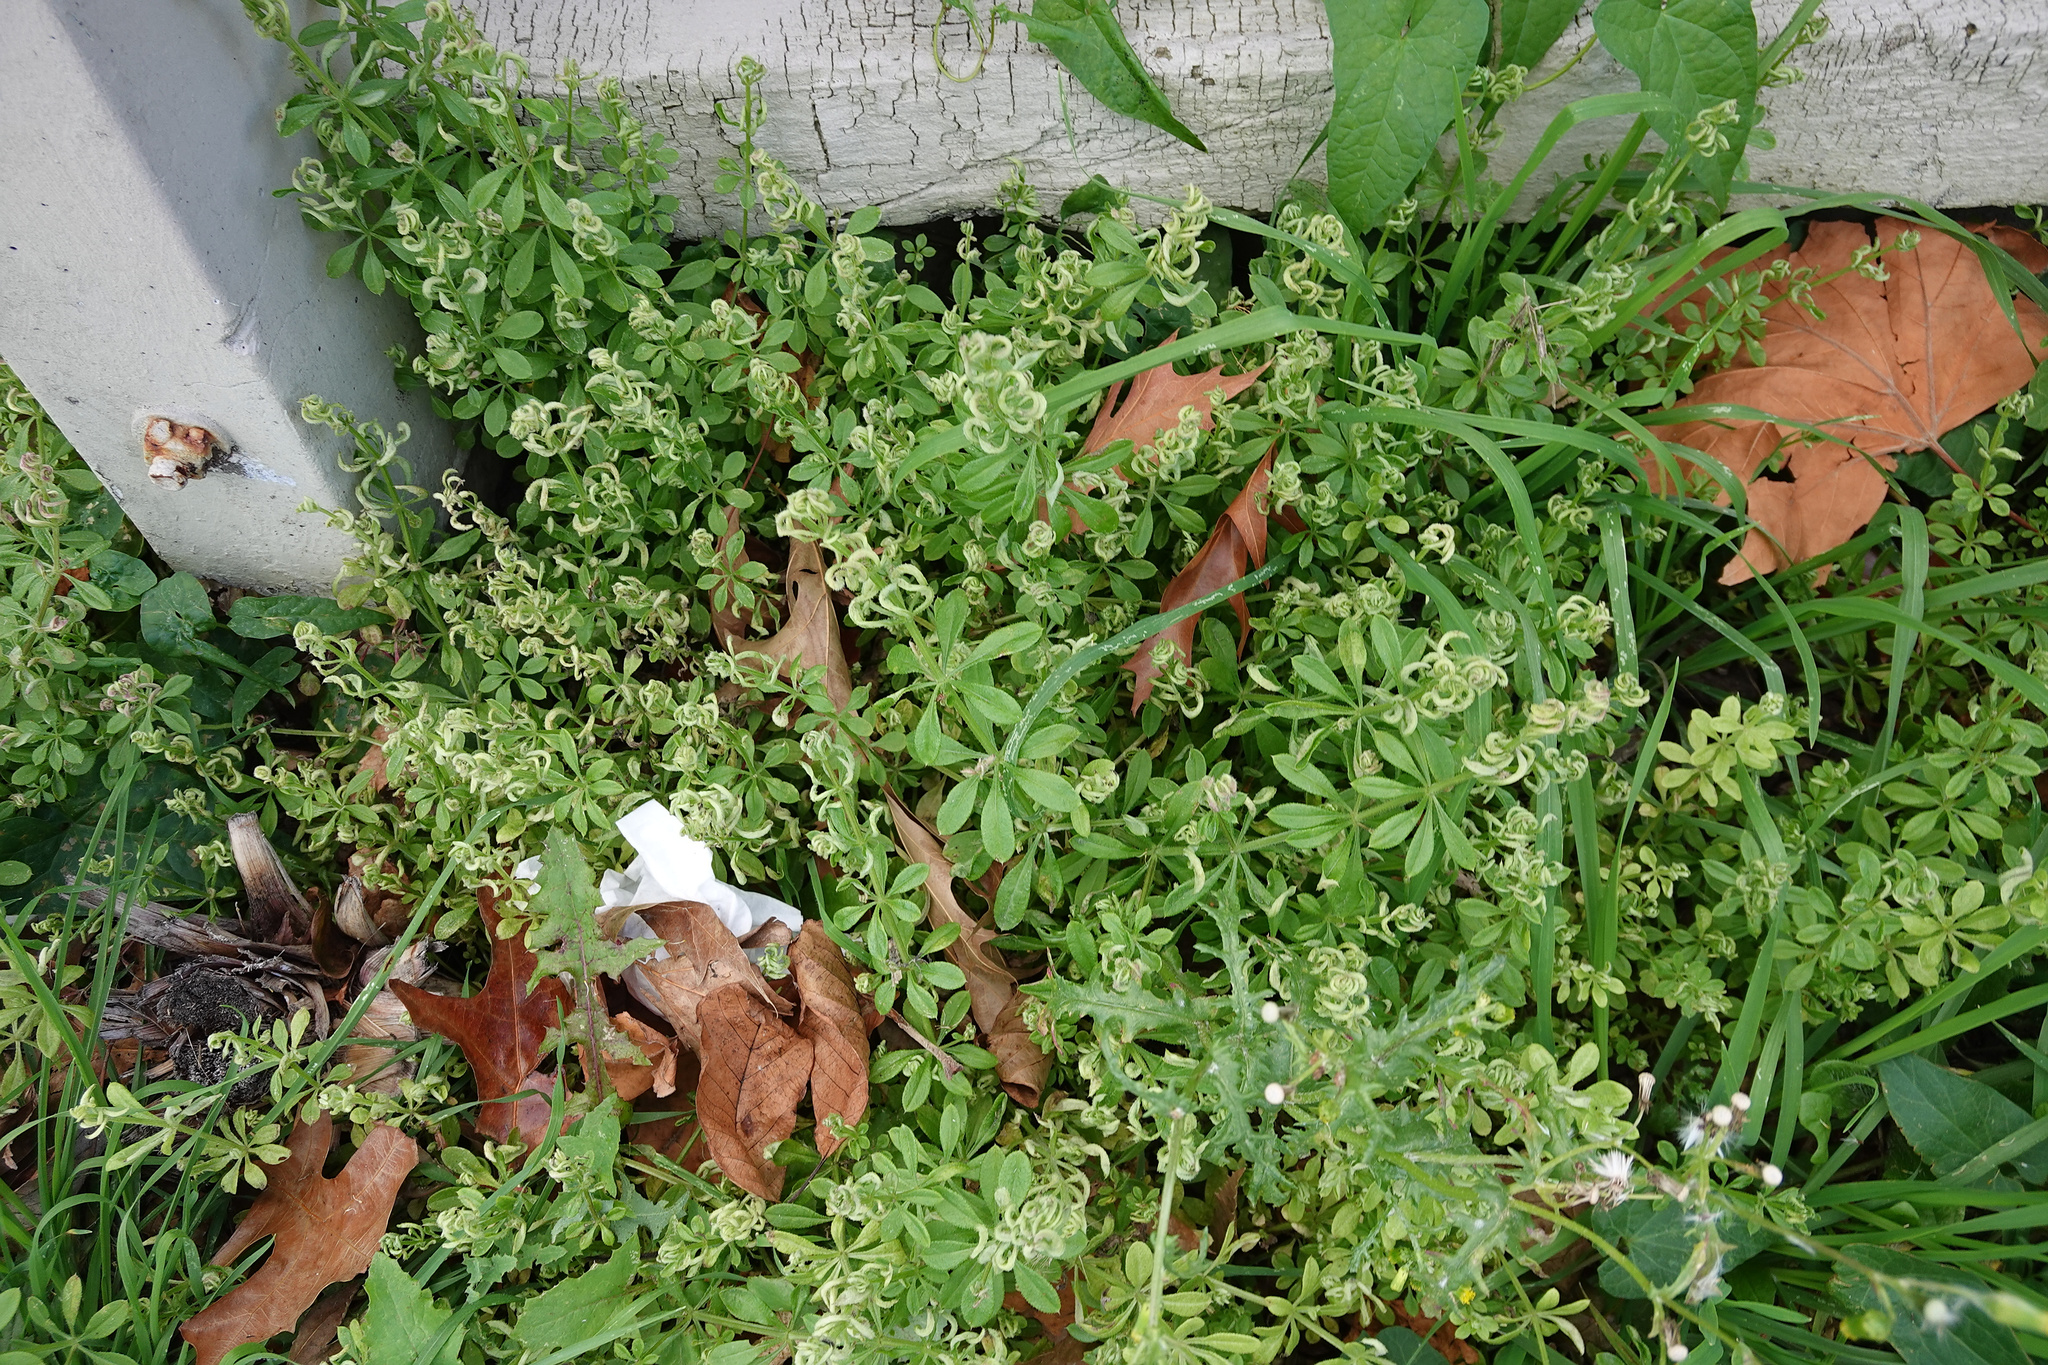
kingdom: Animalia
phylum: Arthropoda
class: Arachnida
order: Trombidiformes
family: Eriophyidae
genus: Cecidophyes
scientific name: Cecidophyes rouhollahi
